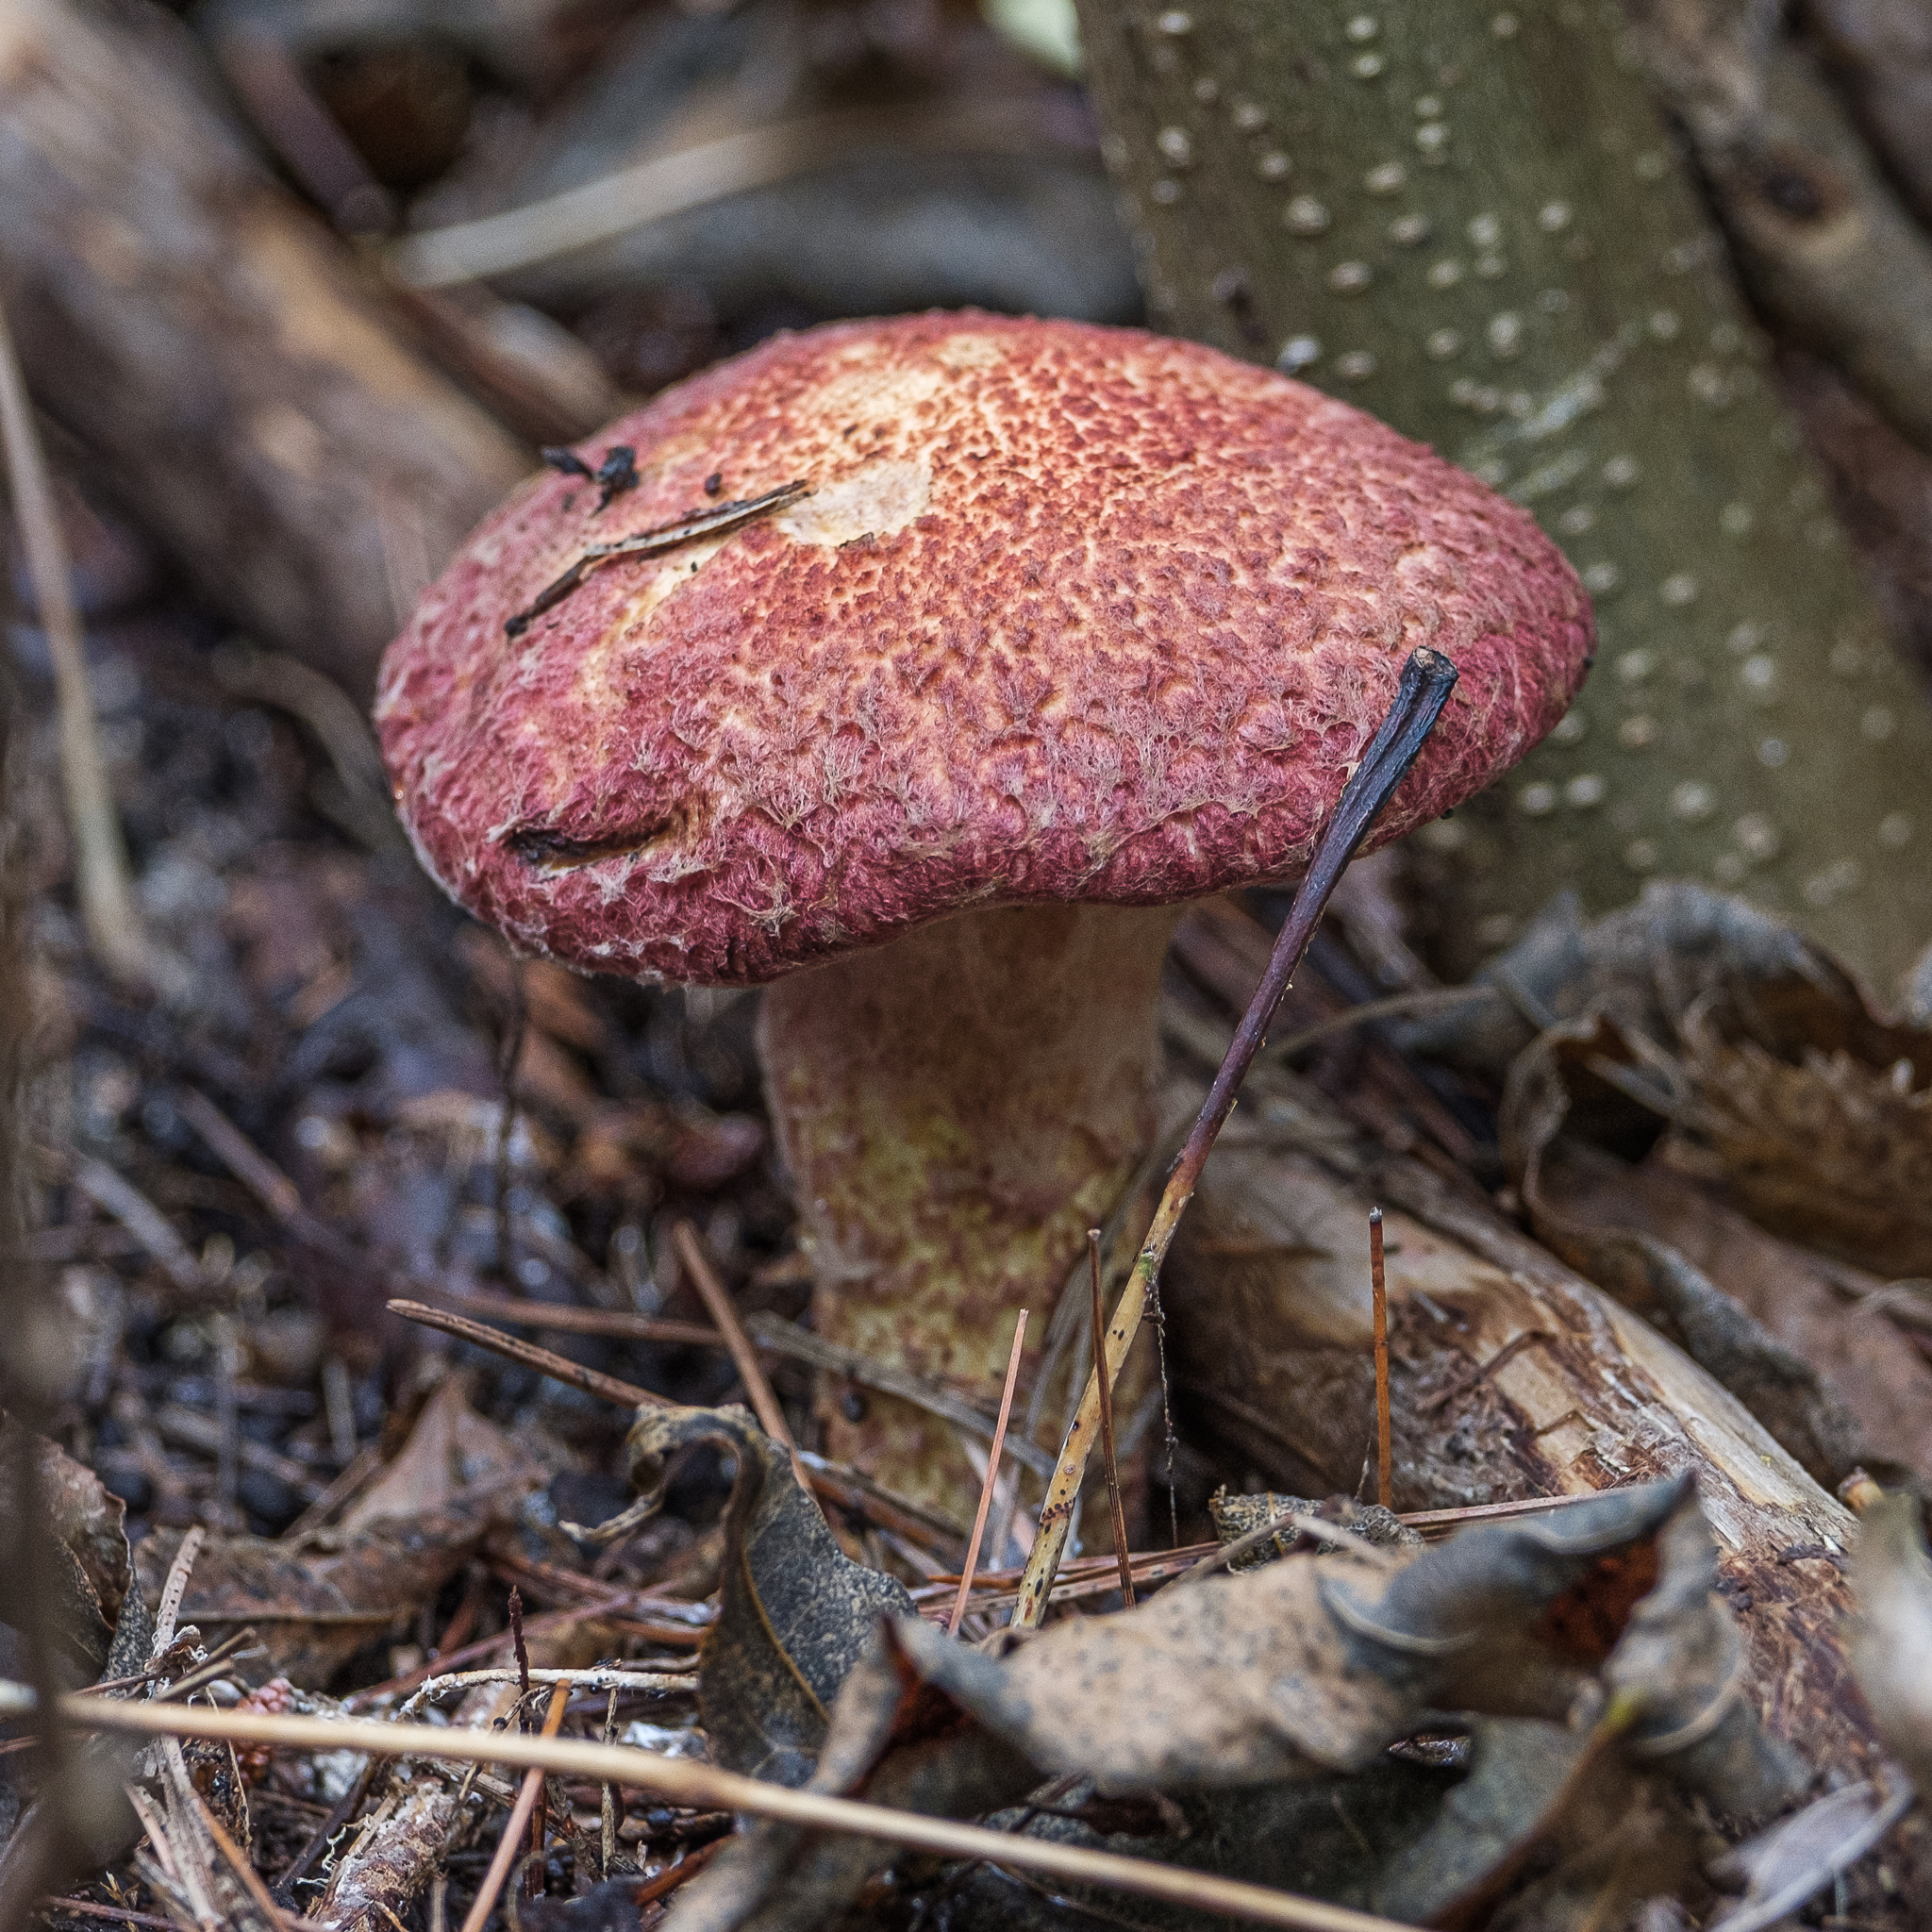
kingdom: Fungi
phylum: Basidiomycota
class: Agaricomycetes
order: Boletales
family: Suillaceae
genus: Suillus
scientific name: Suillus spraguei
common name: Painted suillus
